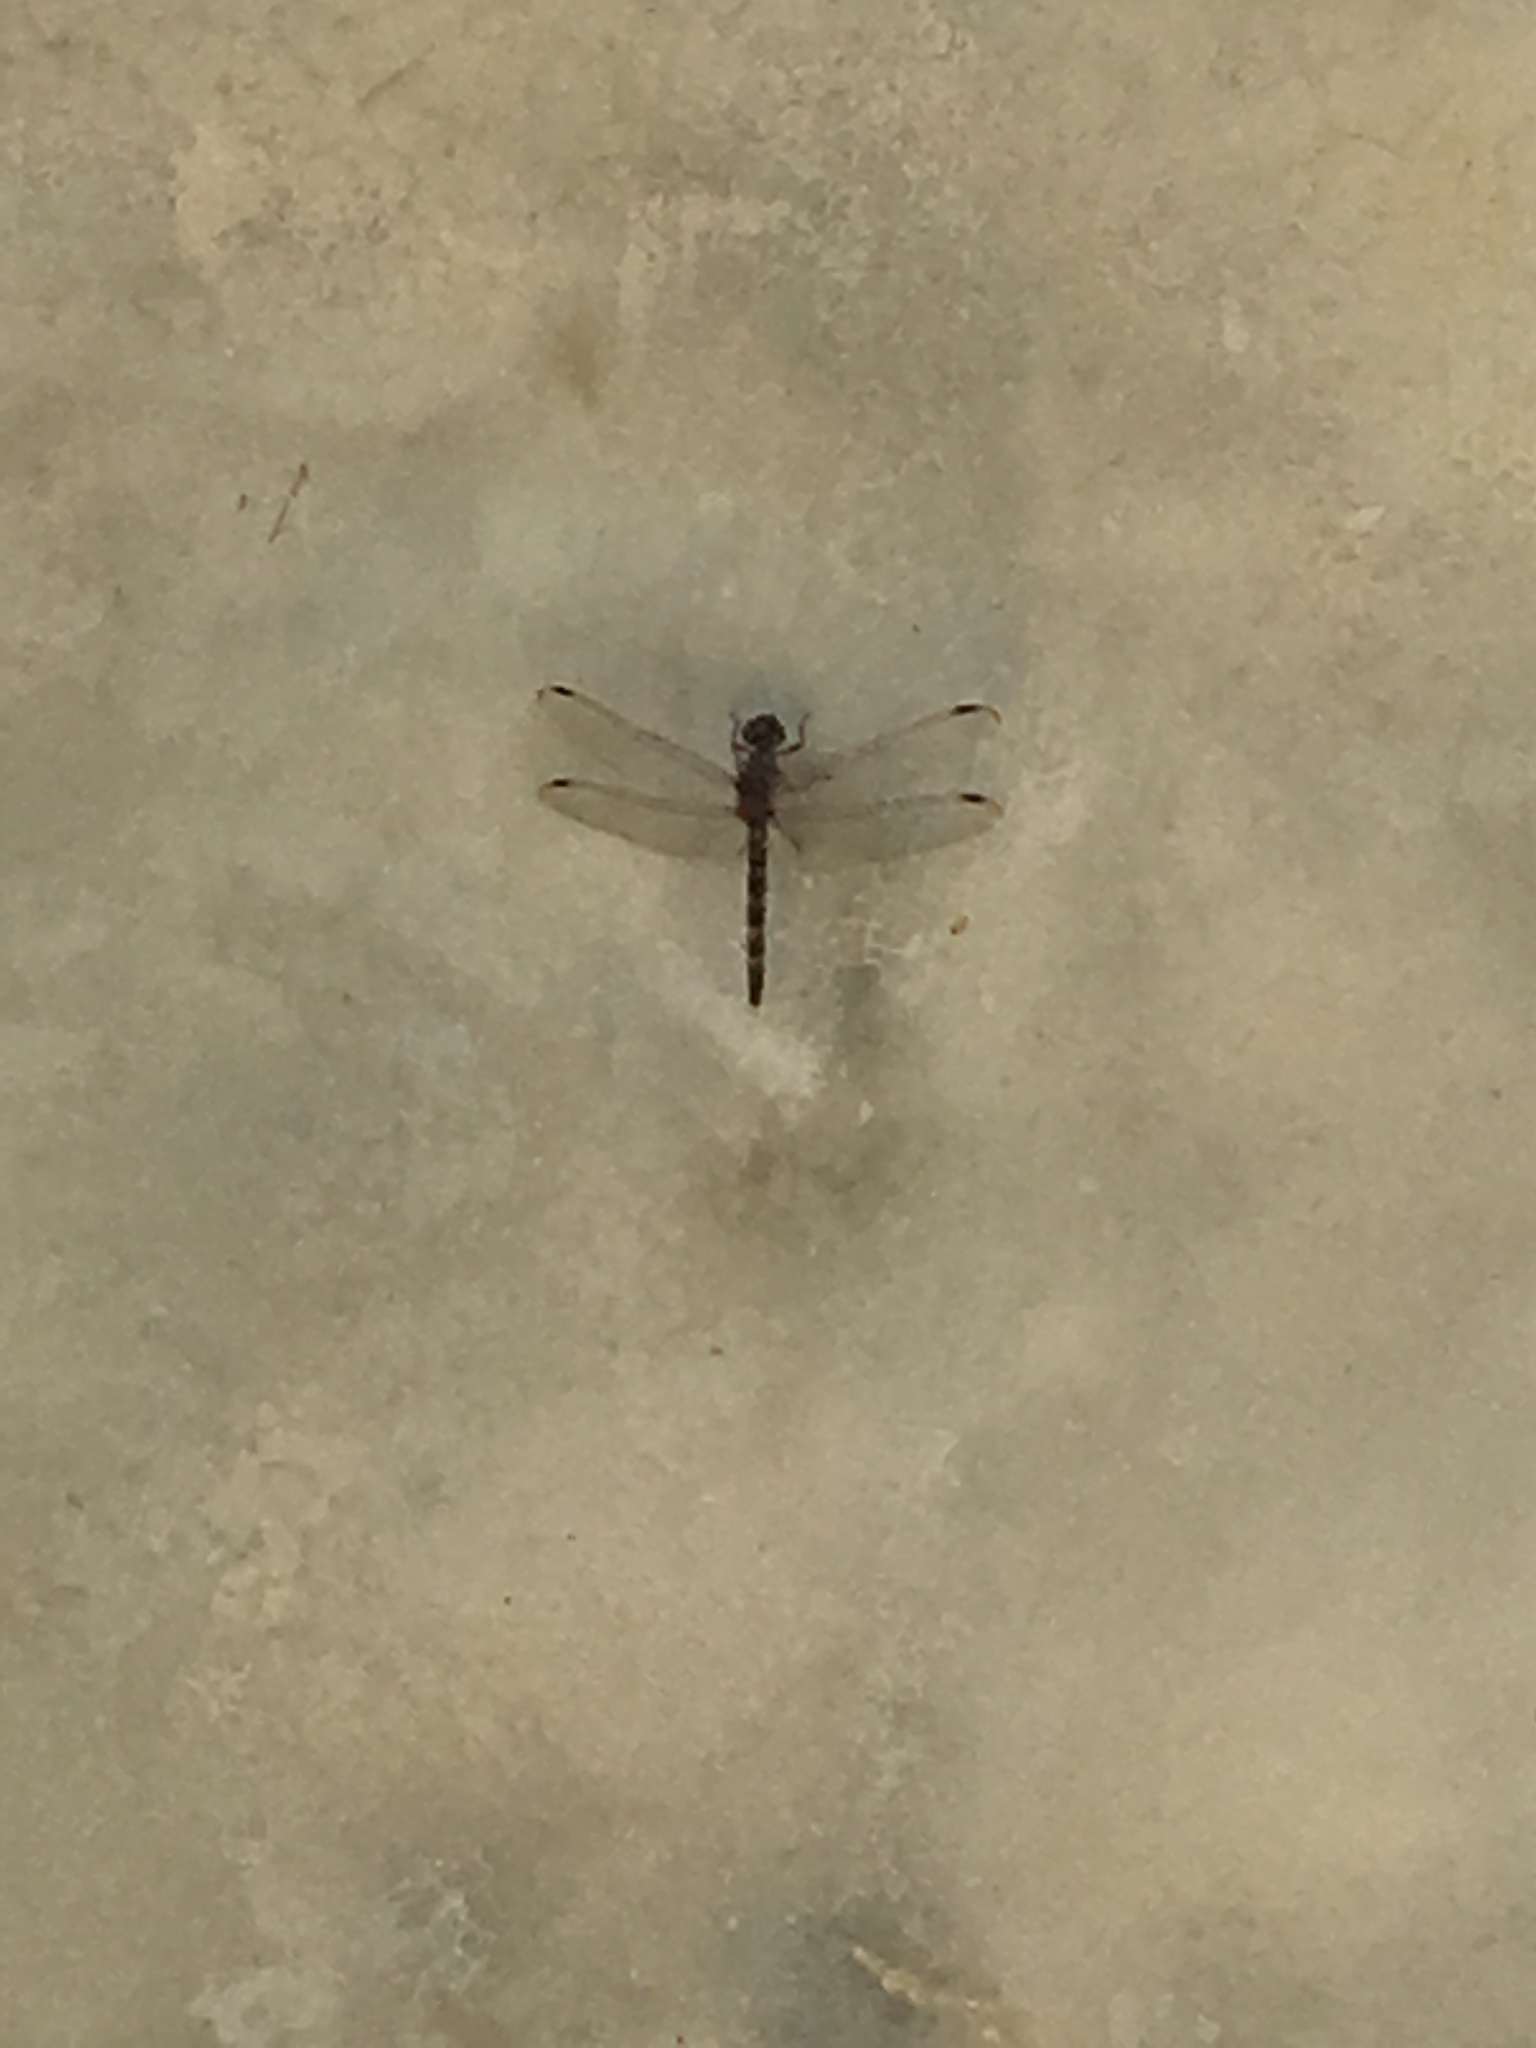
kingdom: Animalia
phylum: Arthropoda
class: Insecta
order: Odonata
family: Libellulidae
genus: Bradinopyga
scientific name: Bradinopyga geminata
